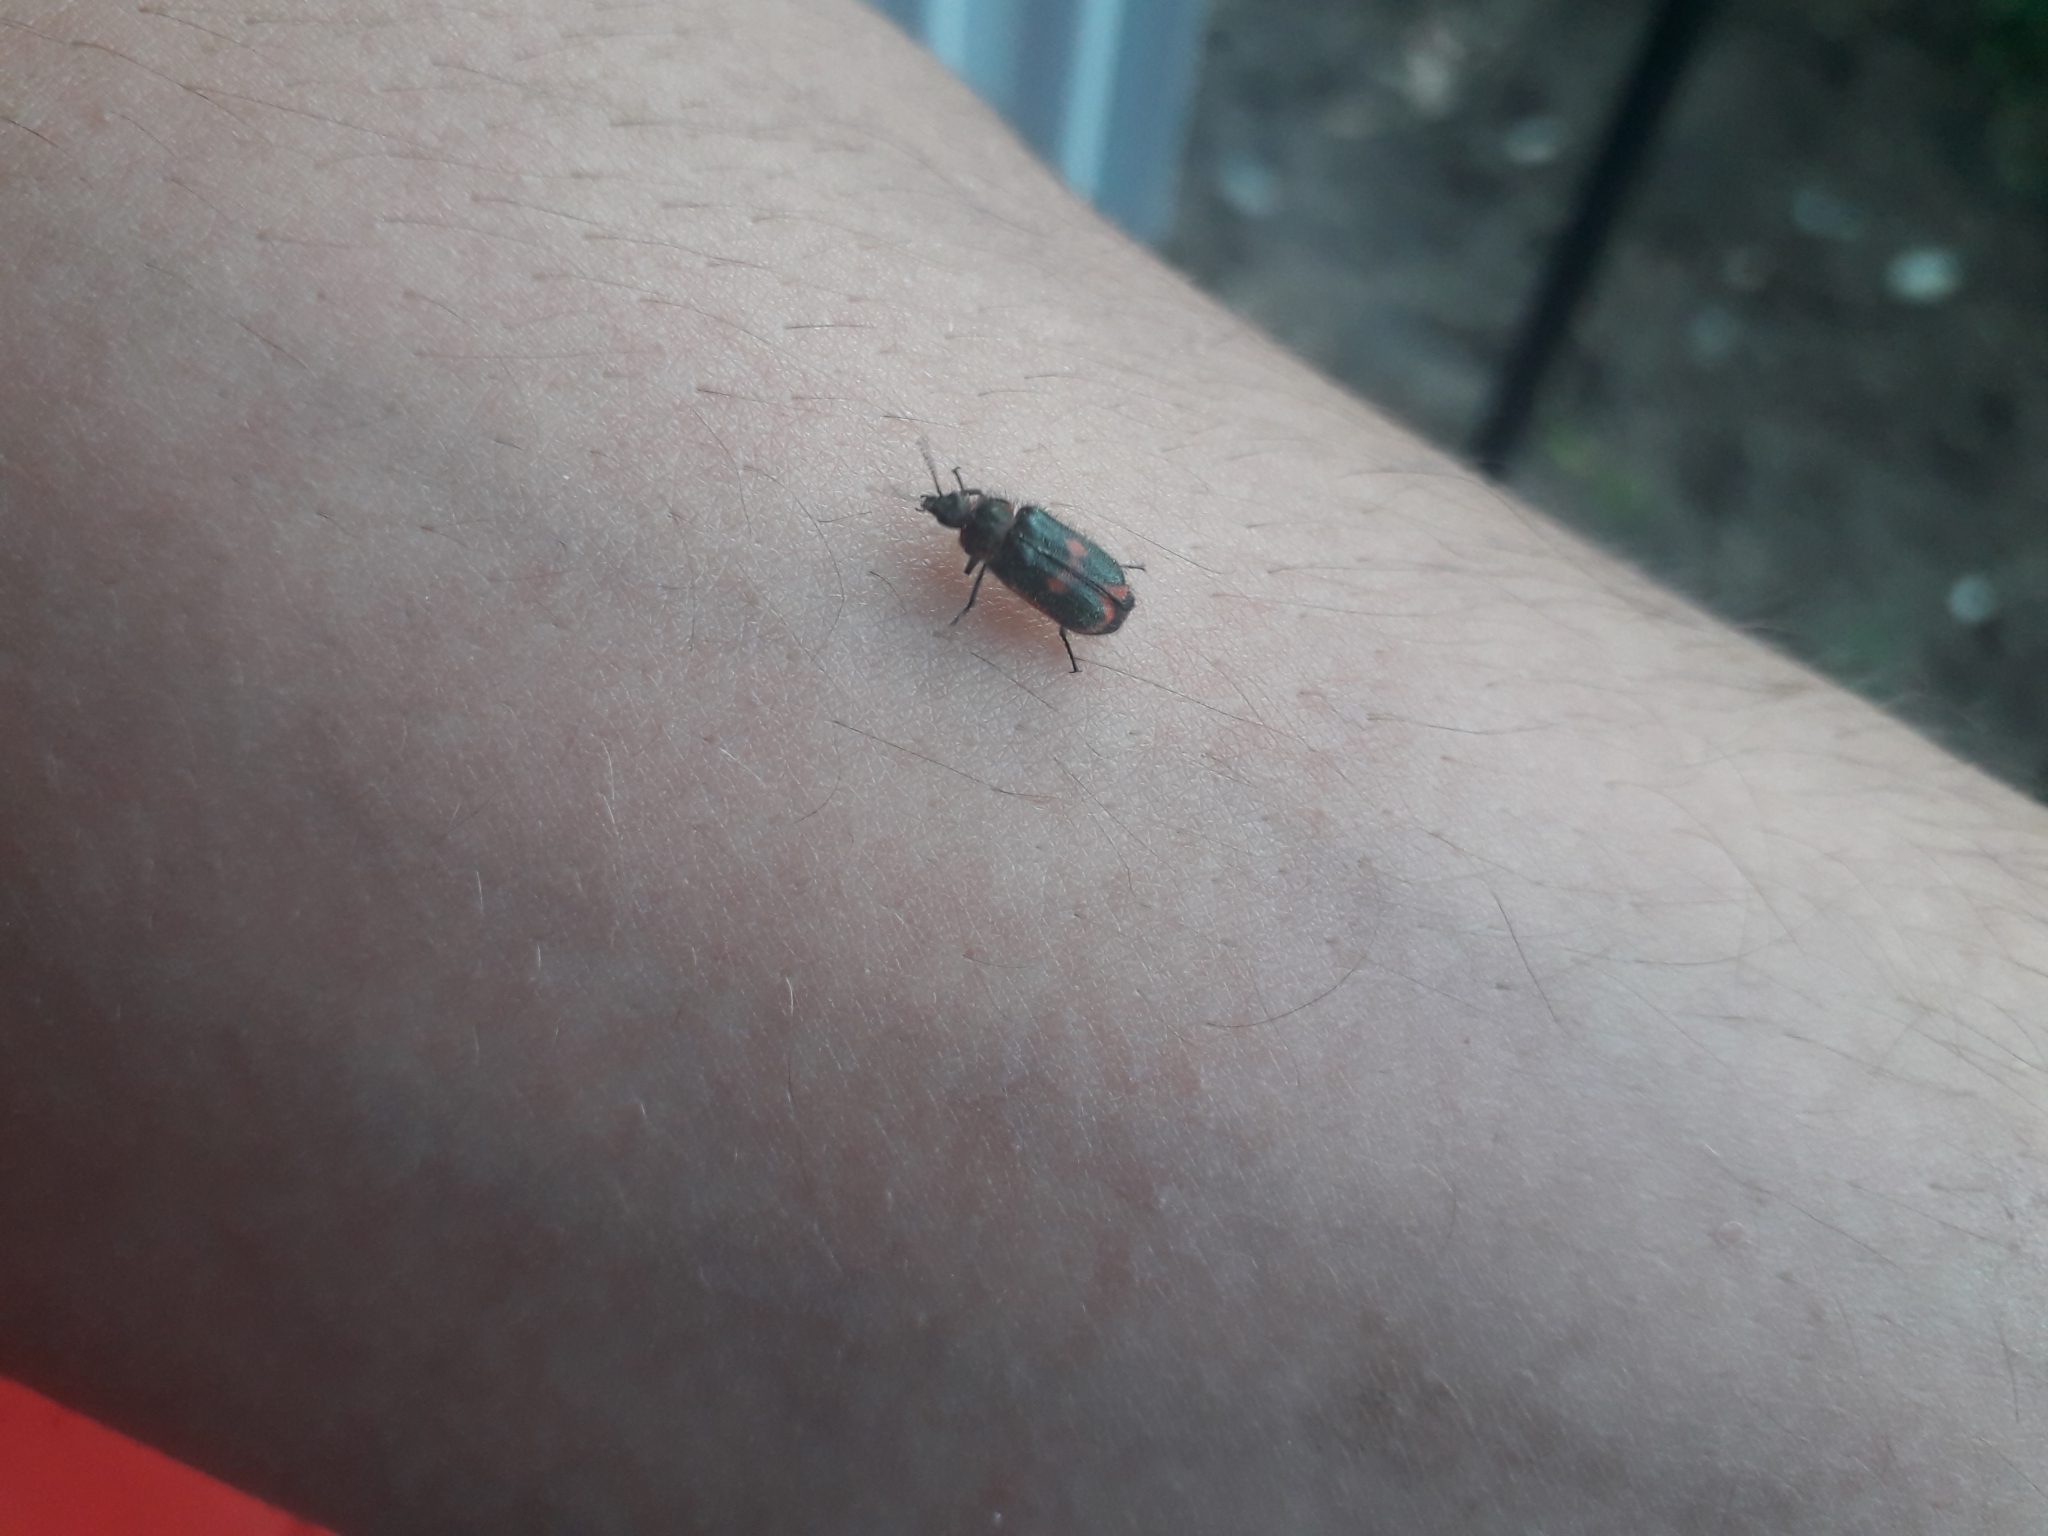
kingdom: Animalia
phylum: Arthropoda
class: Insecta
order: Coleoptera
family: Melyridae
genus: Astylus
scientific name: Astylus
